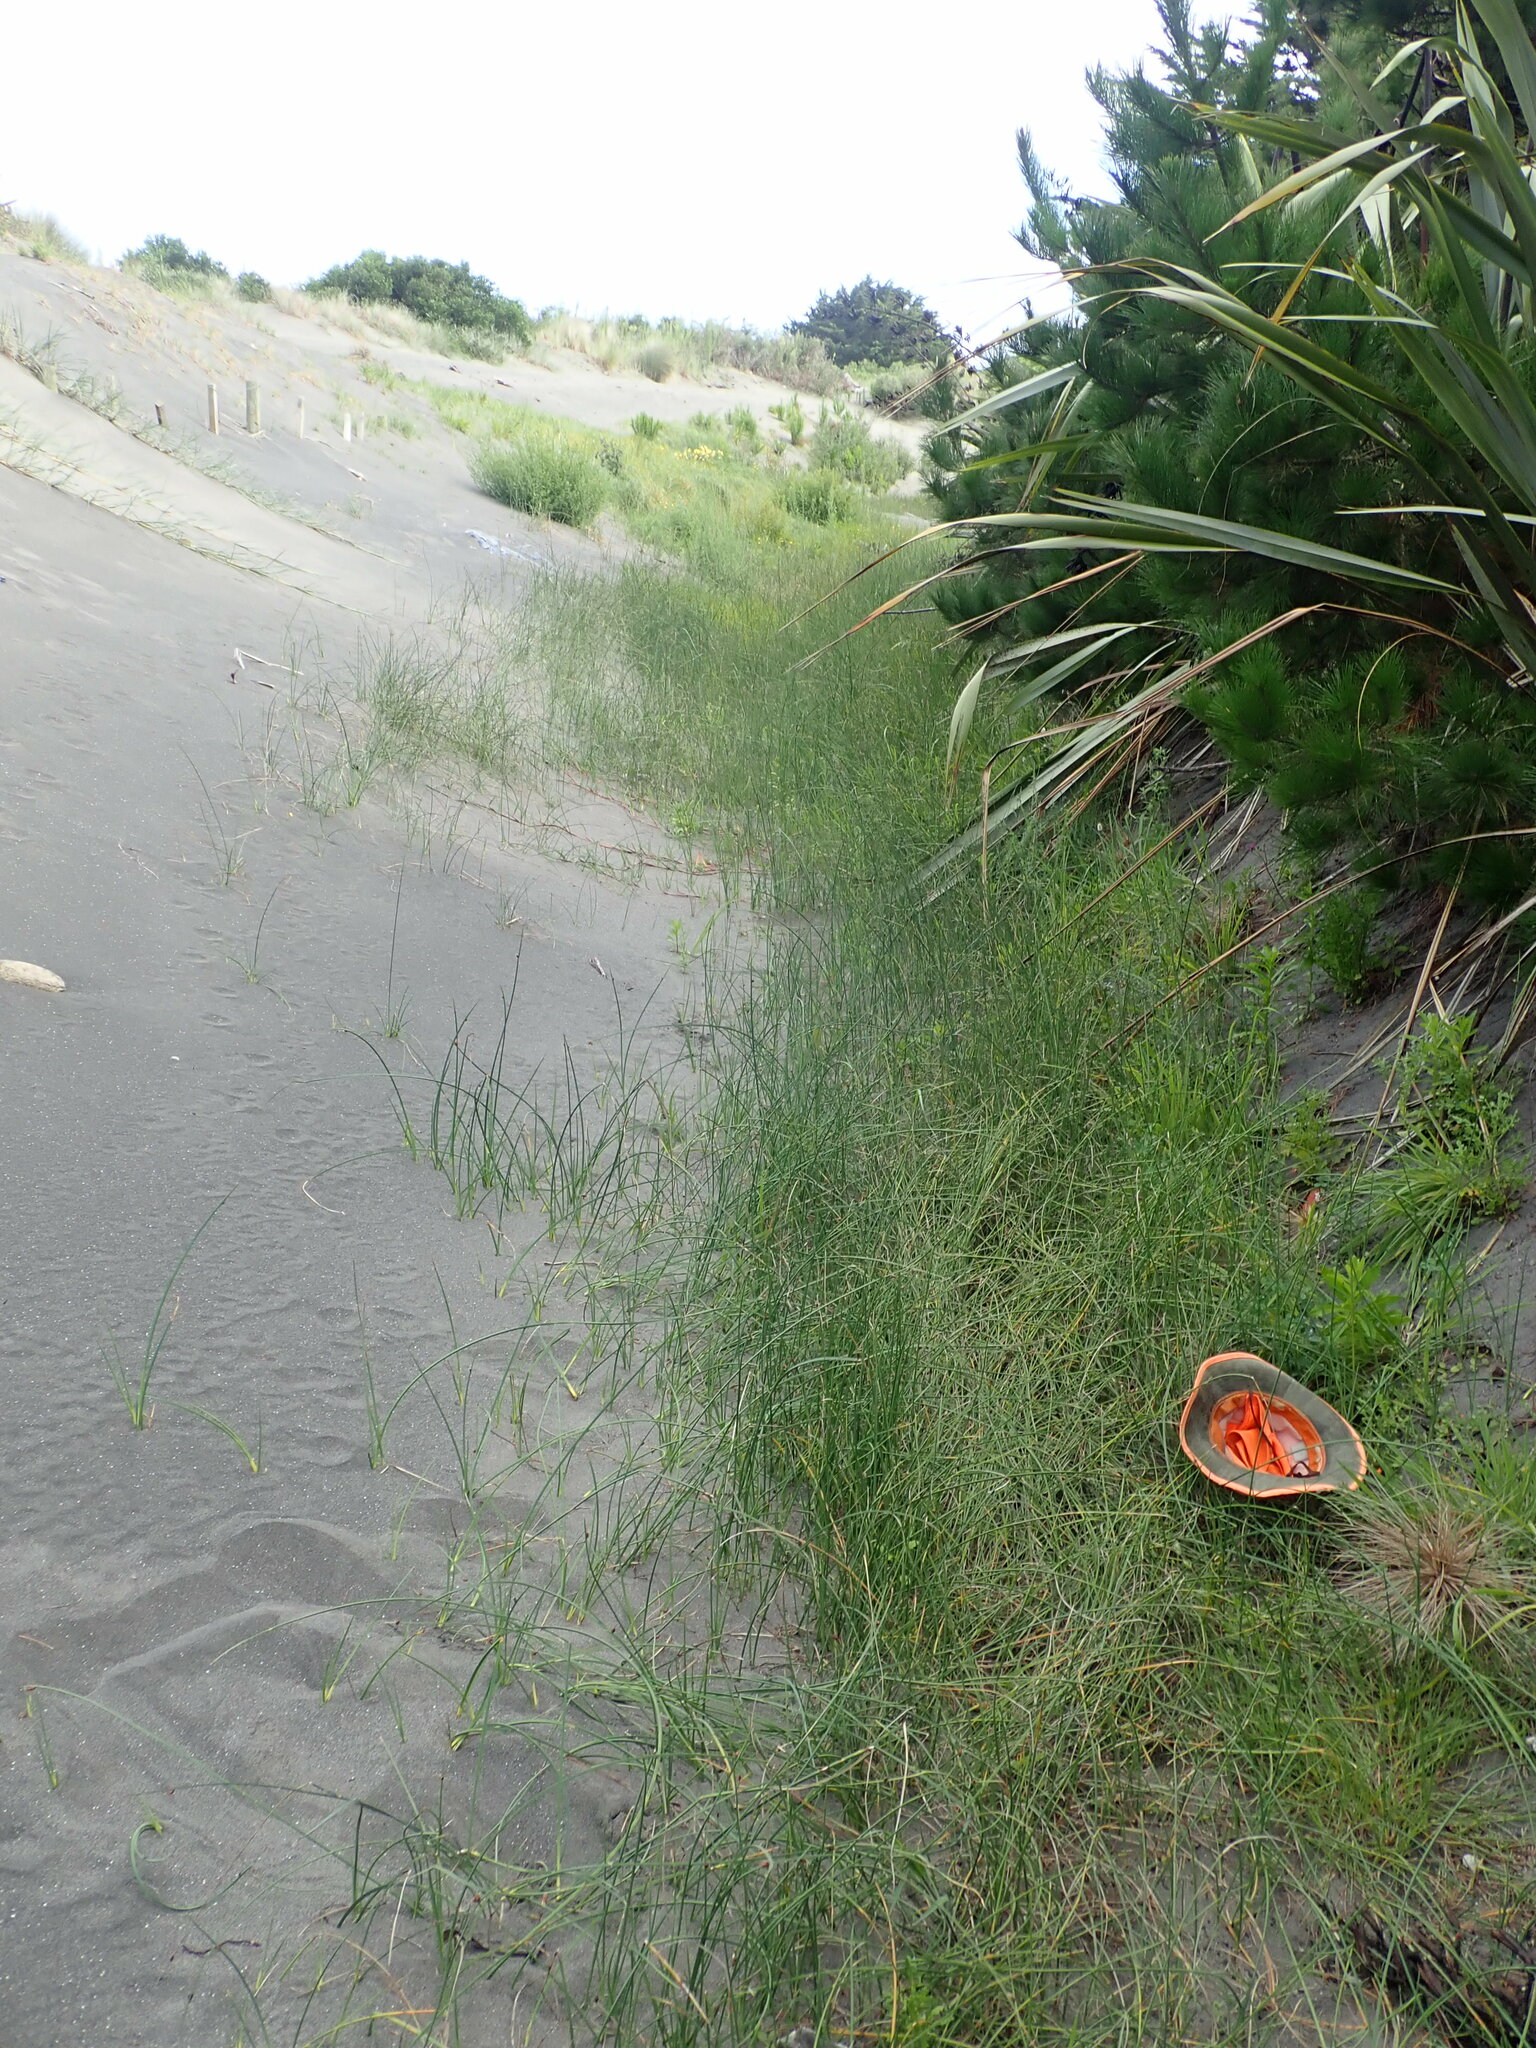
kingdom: Plantae
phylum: Tracheophyta
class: Magnoliopsida
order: Ericales
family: Primulaceae
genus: Lysimachia
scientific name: Lysimachia arvensis
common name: Scarlet pimpernel
